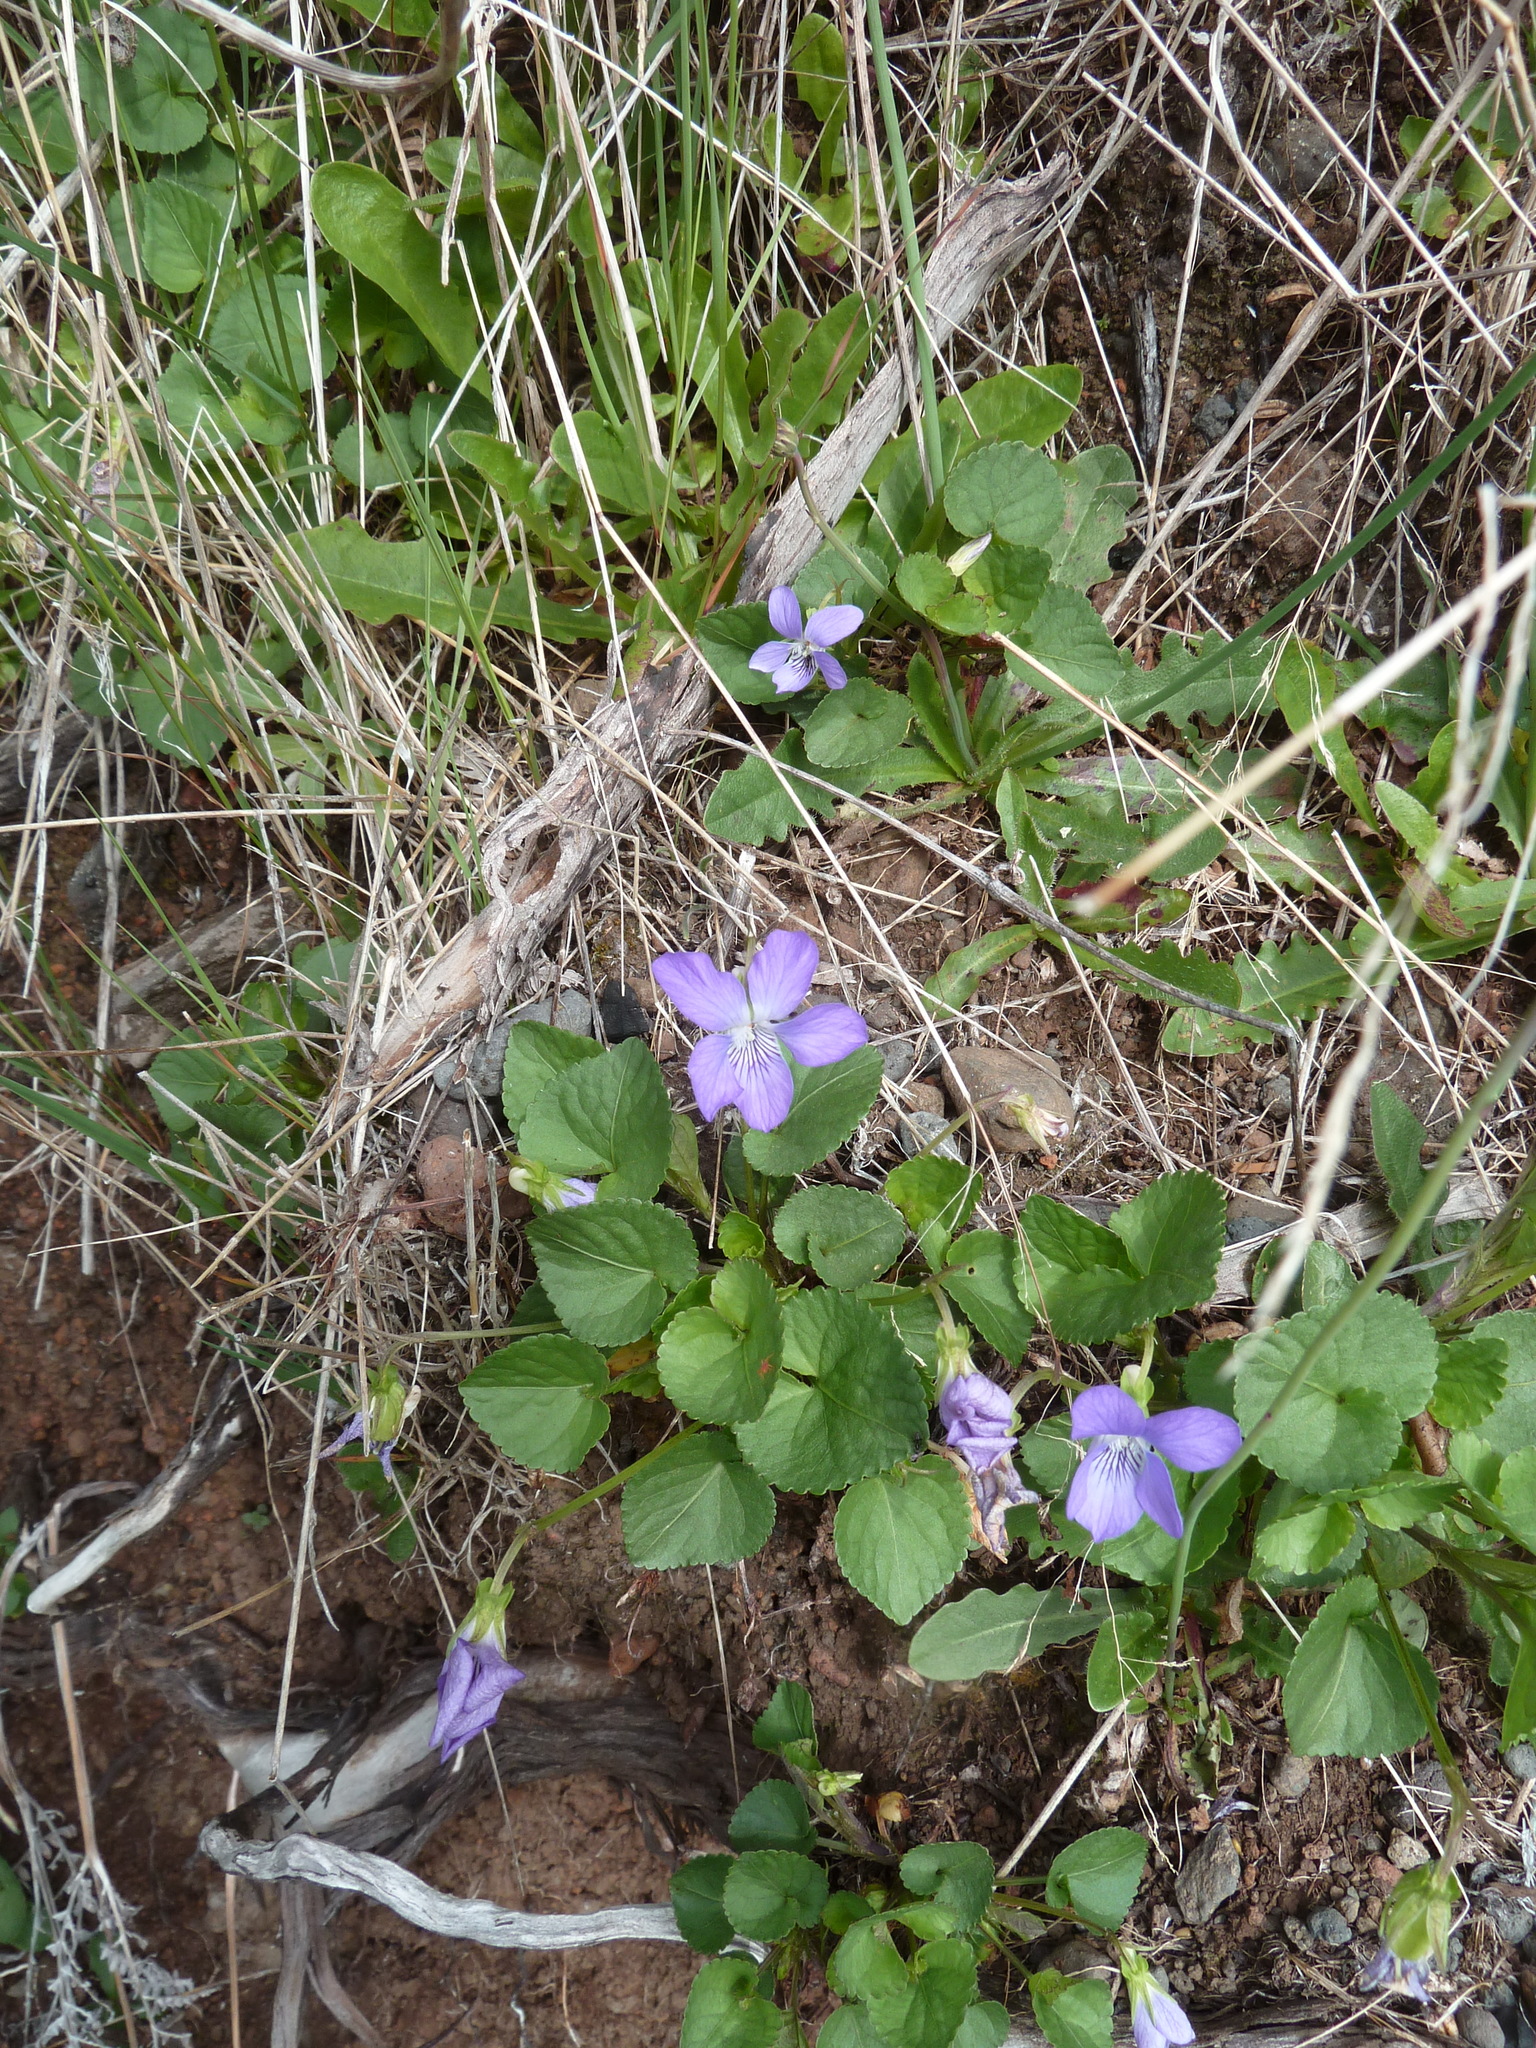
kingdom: Plantae
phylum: Tracheophyta
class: Magnoliopsida
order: Malpighiales
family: Violaceae
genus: Viola
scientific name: Viola riviniana
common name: Common dog-violet
